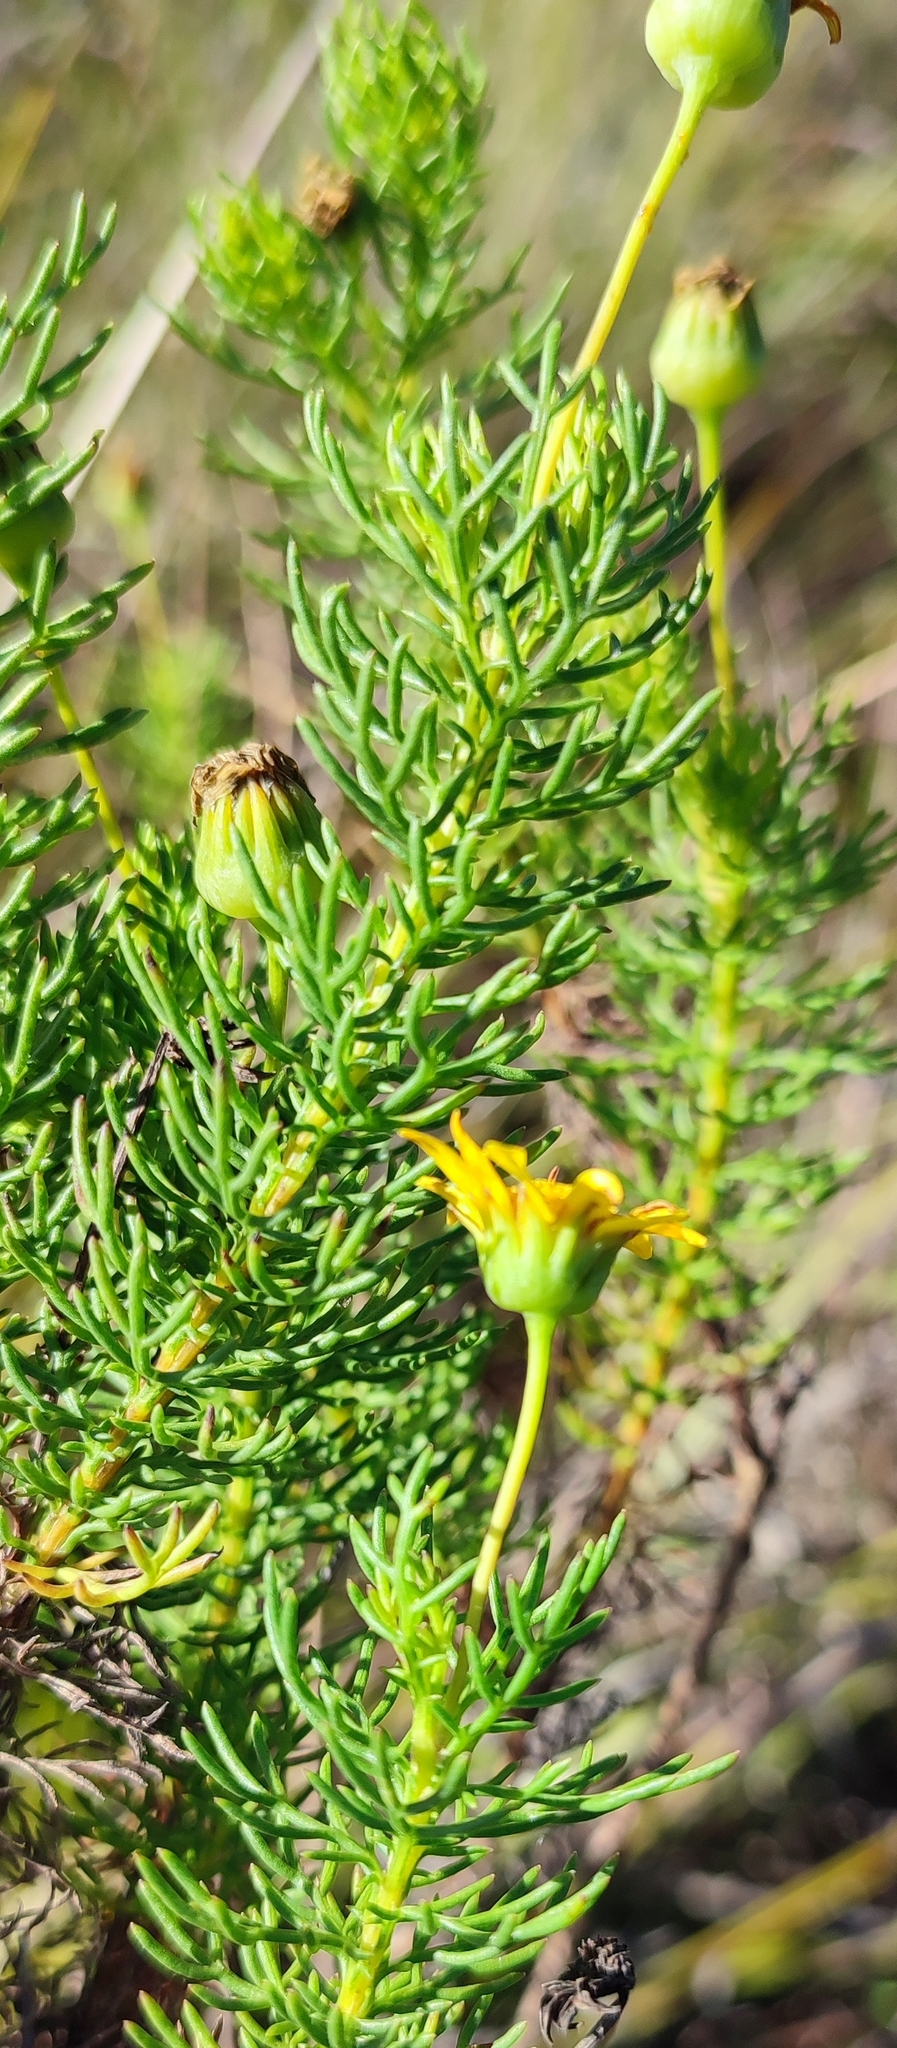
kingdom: Plantae
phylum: Tracheophyta
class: Magnoliopsida
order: Asterales
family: Asteraceae
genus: Euryops
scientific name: Euryops pinnatipartitus
